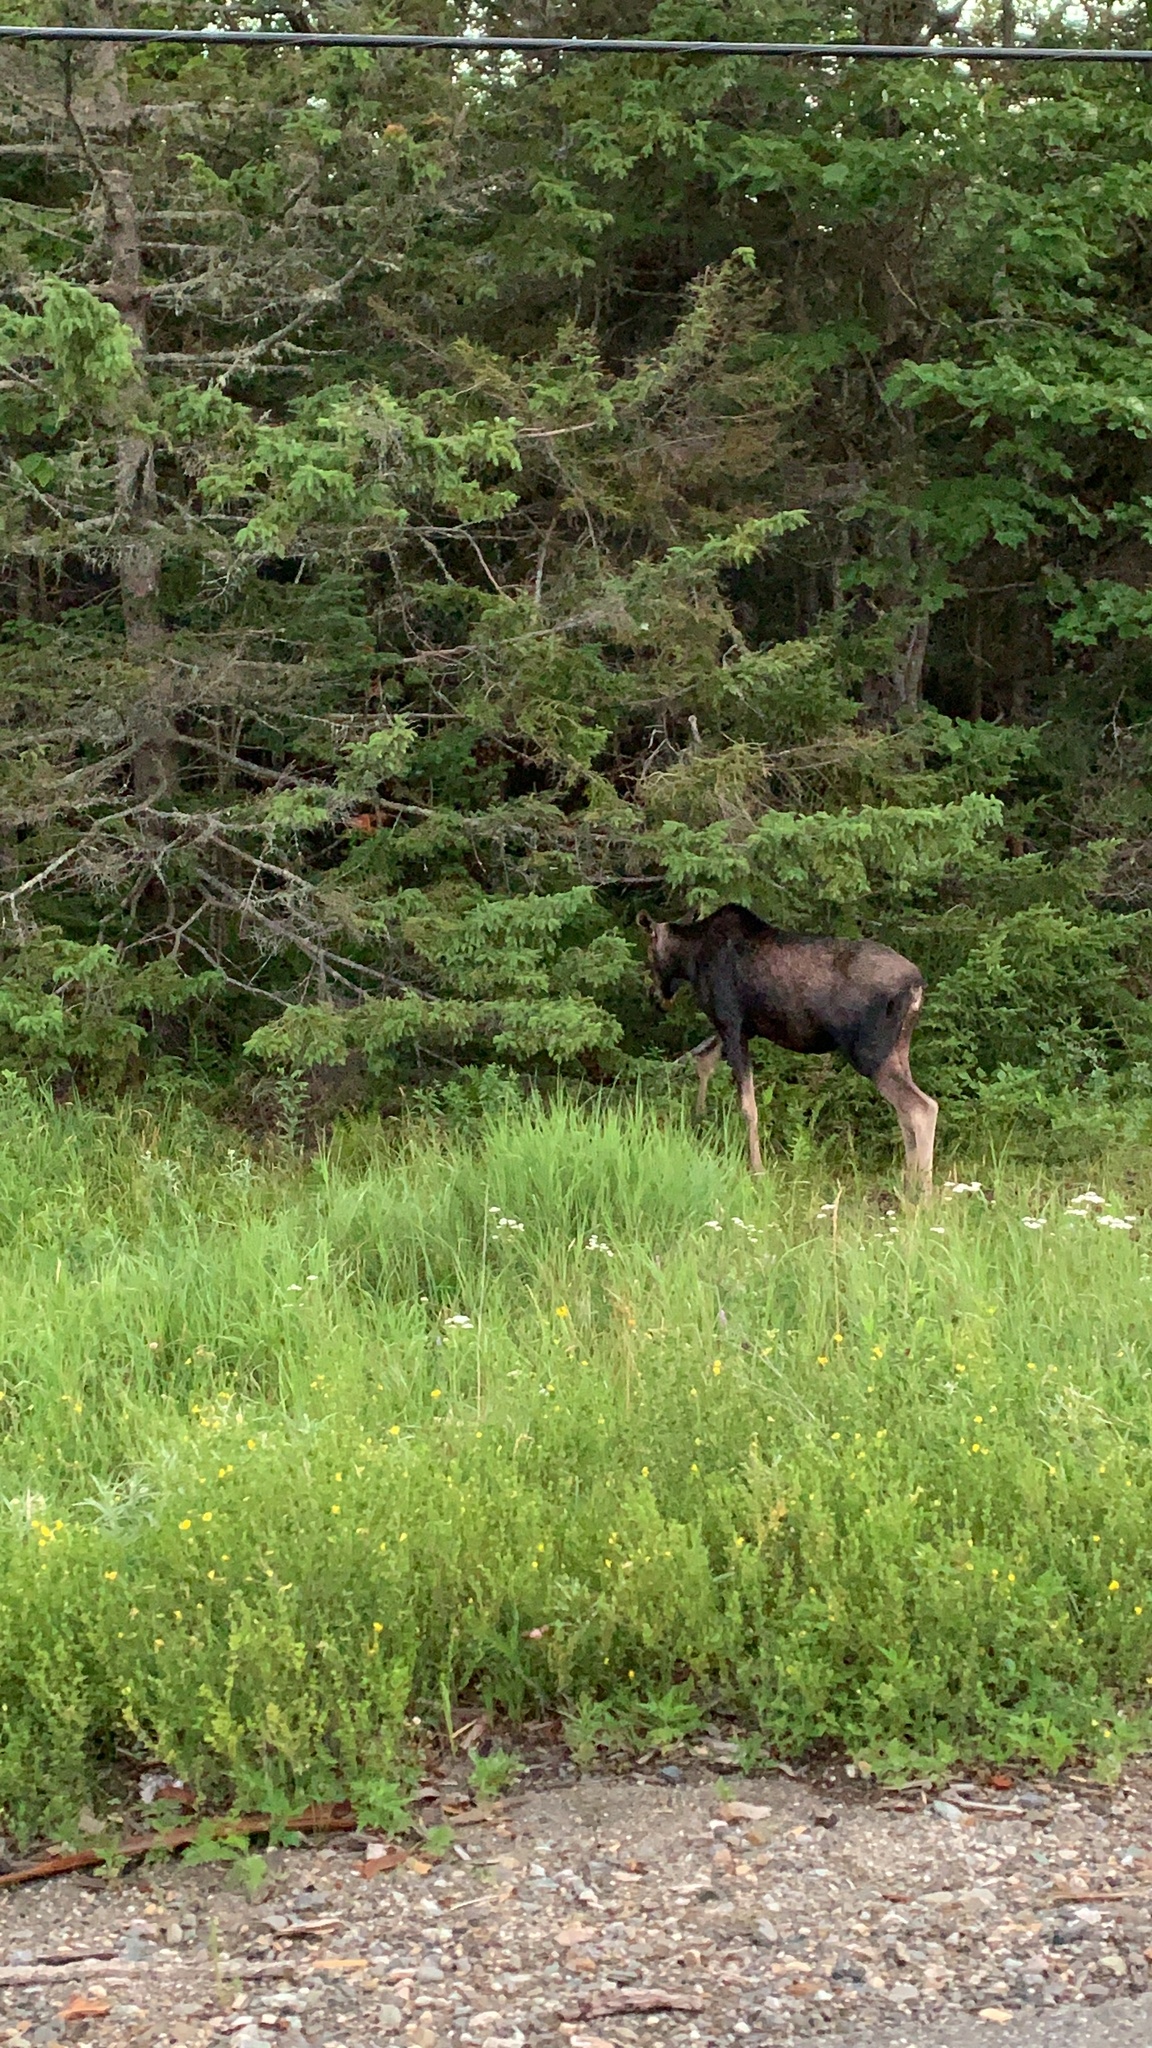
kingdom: Animalia
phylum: Chordata
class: Mammalia
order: Artiodactyla
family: Cervidae
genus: Alces
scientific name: Alces alces
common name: Moose
